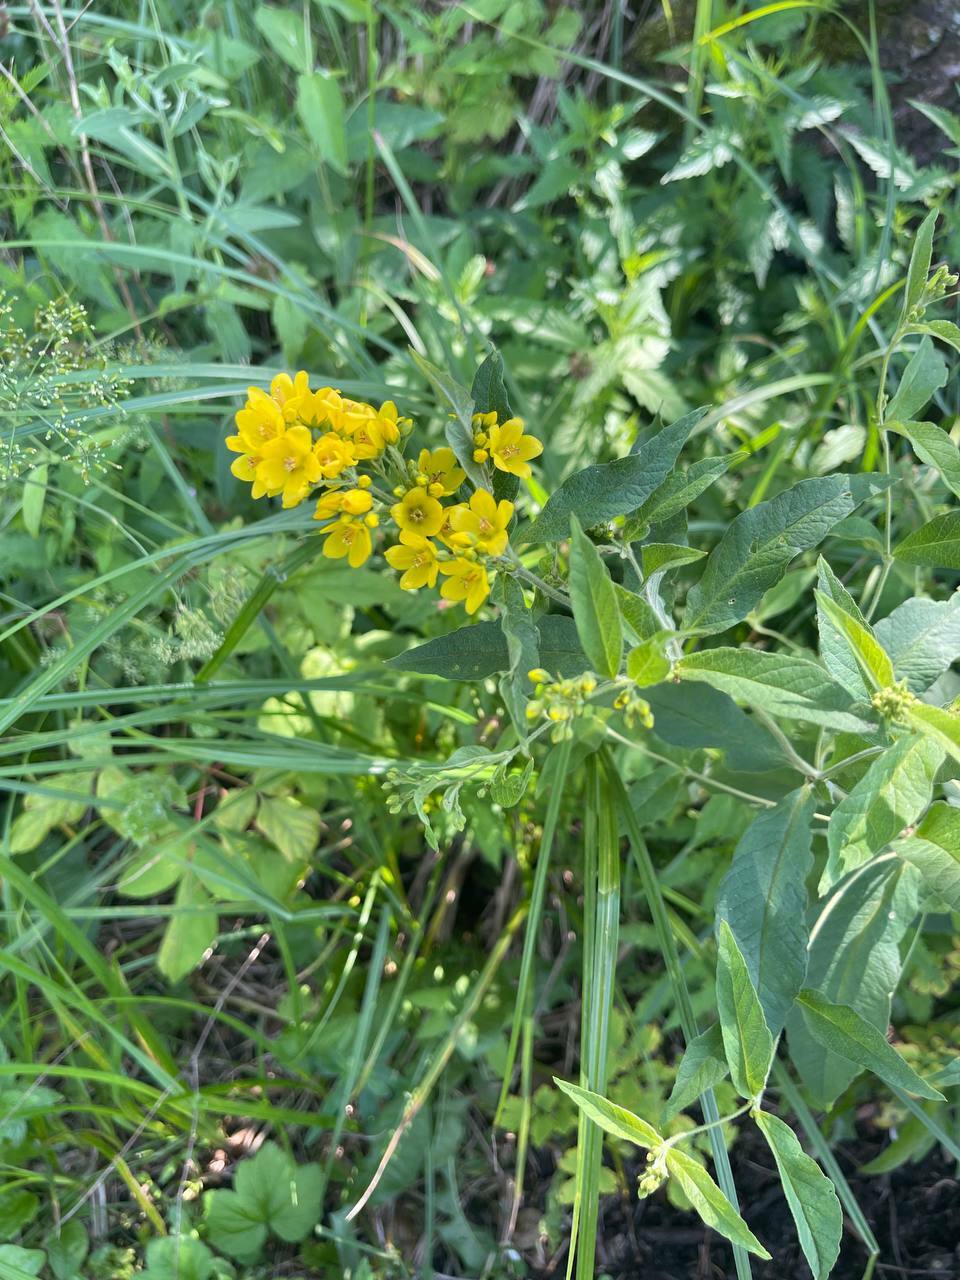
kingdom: Plantae
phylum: Tracheophyta
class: Magnoliopsida
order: Ericales
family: Primulaceae
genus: Lysimachia
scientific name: Lysimachia vulgaris
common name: Yellow loosestrife
